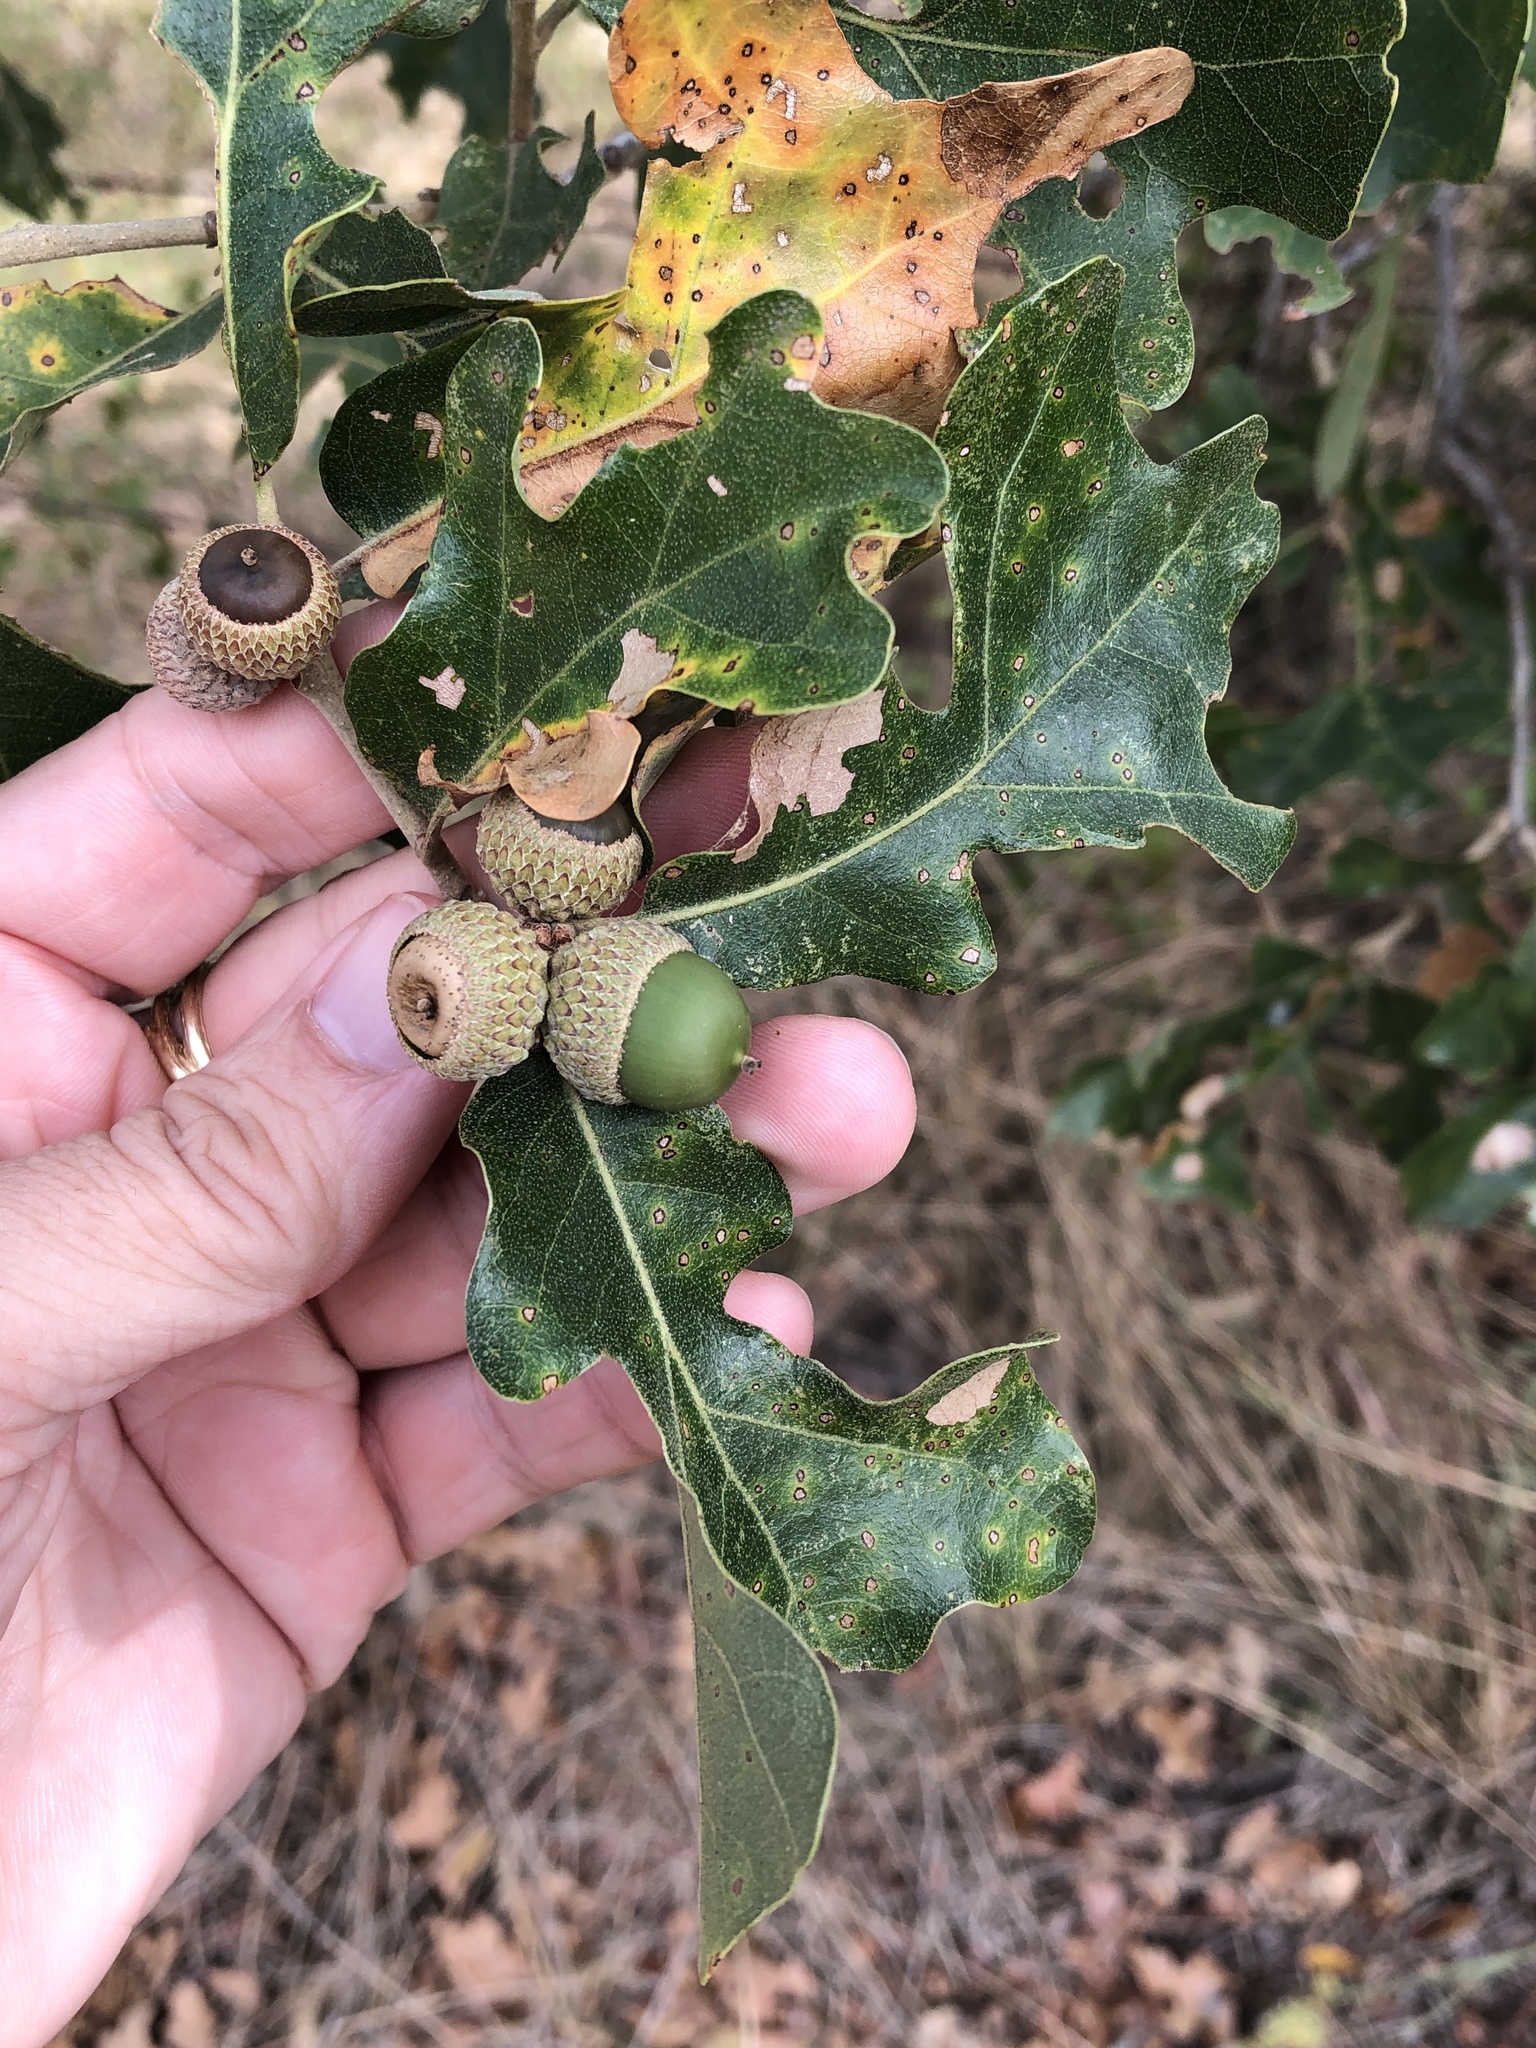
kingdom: Plantae
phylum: Tracheophyta
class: Magnoliopsida
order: Fagales
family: Fagaceae
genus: Quercus
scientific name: Quercus stellata
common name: Post oak
